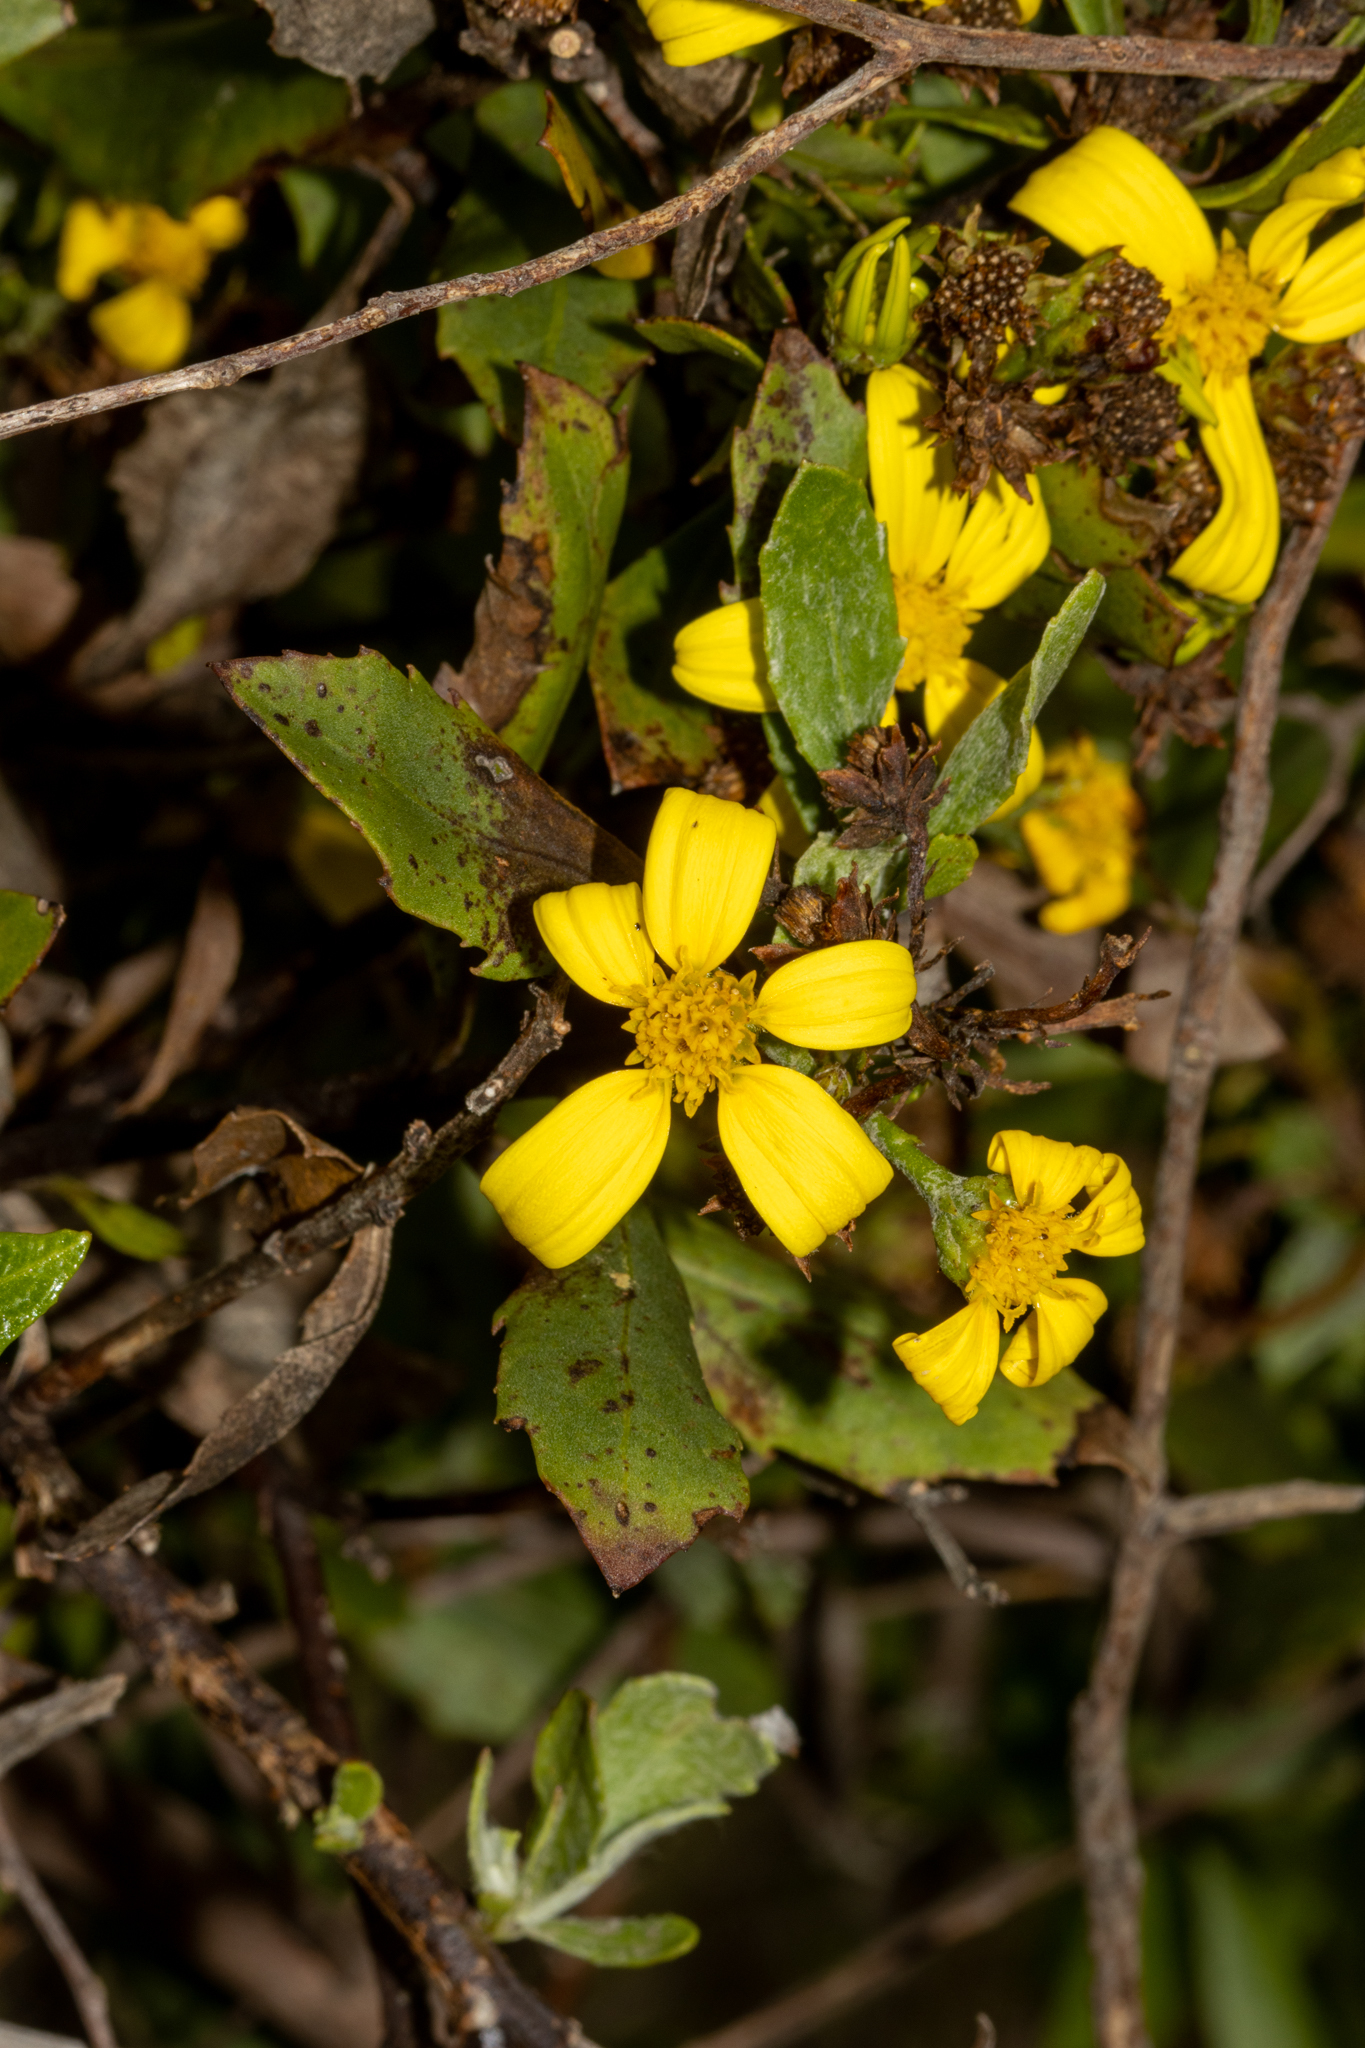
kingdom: Plantae
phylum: Tracheophyta
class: Magnoliopsida
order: Asterales
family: Asteraceae
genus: Osteospermum
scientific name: Osteospermum moniliferum
